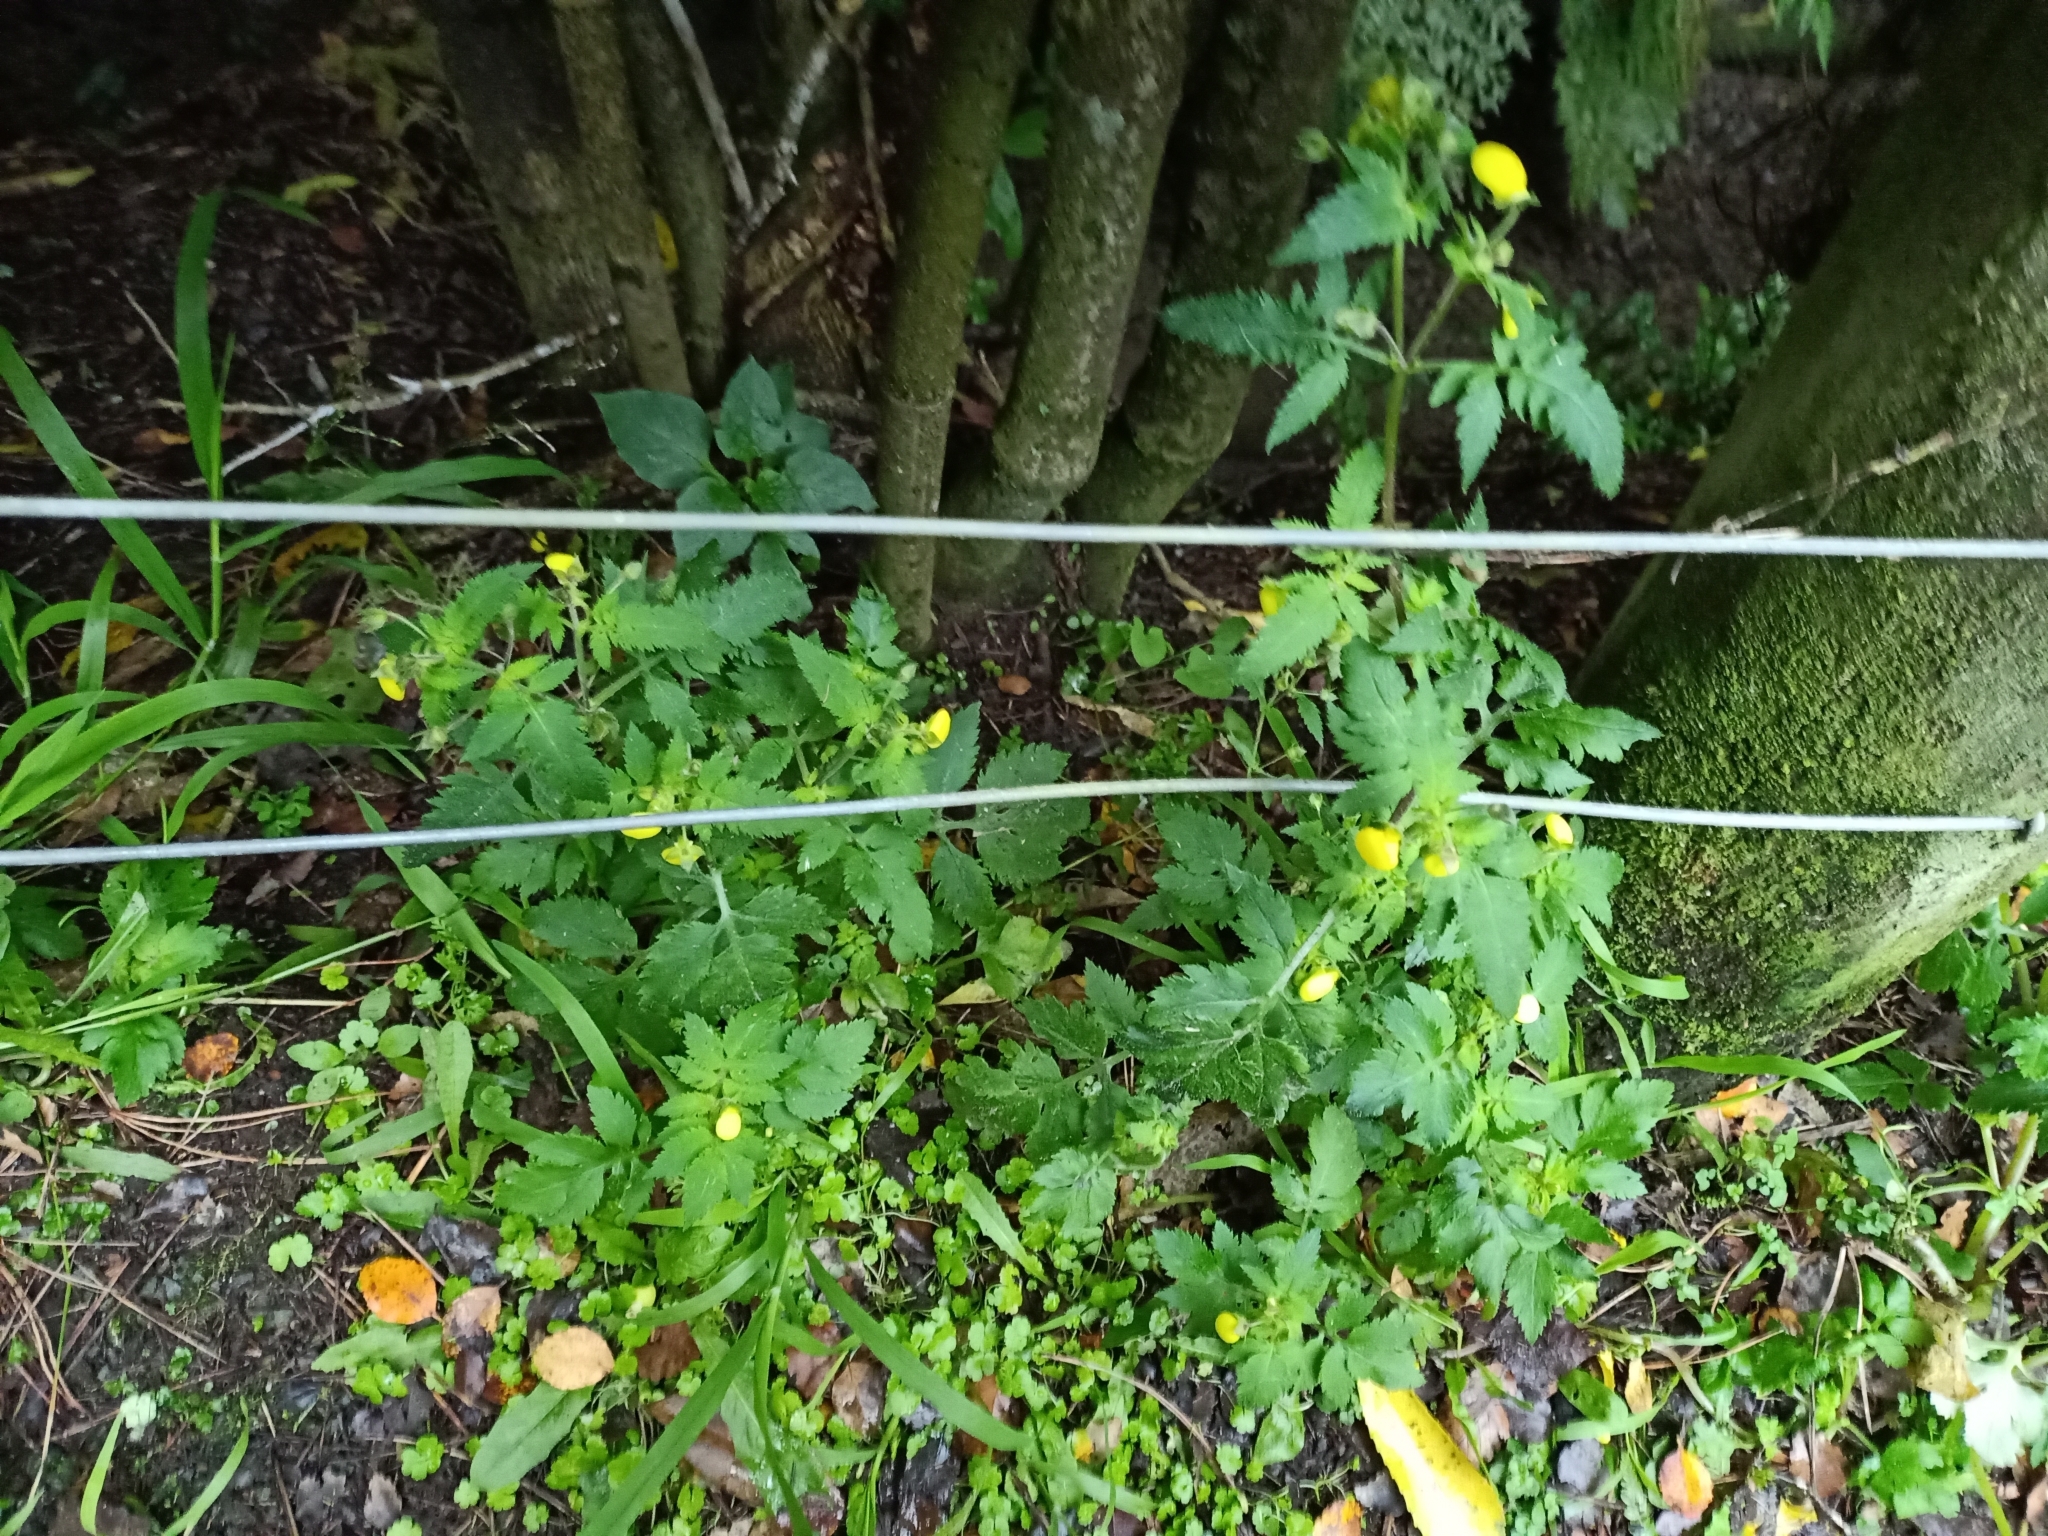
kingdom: Plantae
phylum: Tracheophyta
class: Magnoliopsida
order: Lamiales
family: Calceolariaceae
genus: Calceolaria
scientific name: Calceolaria tripartita
